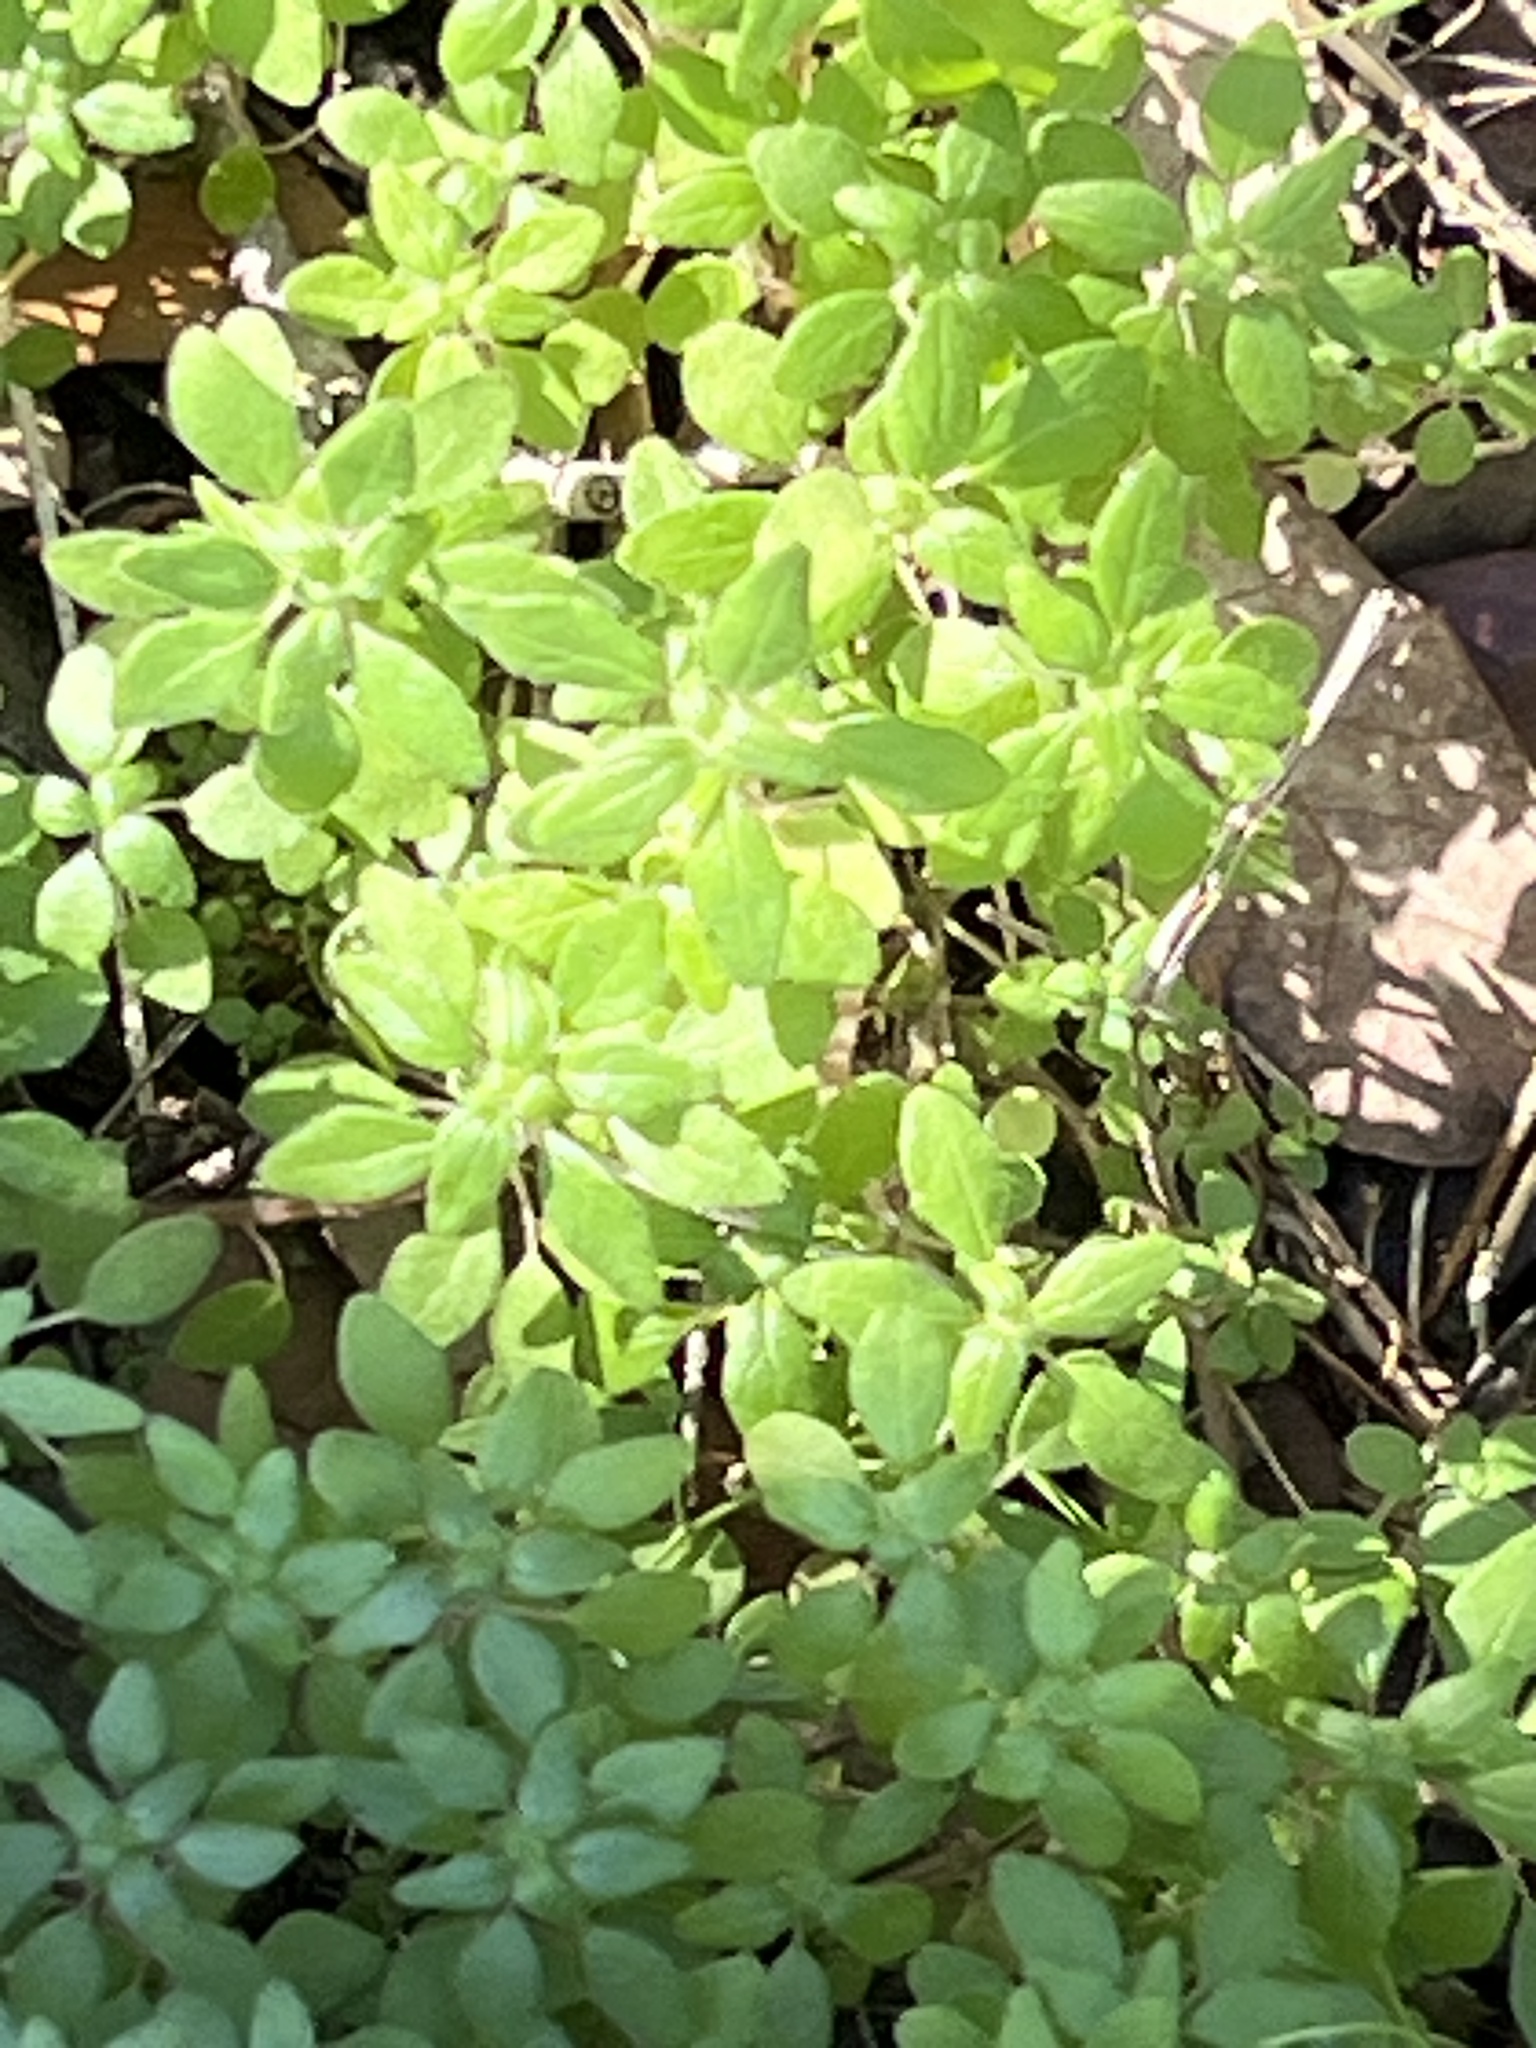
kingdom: Plantae
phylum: Tracheophyta
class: Magnoliopsida
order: Rosales
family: Urticaceae
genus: Parietaria
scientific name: Parietaria pensylvanica
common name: Pennsylvania pellitory
